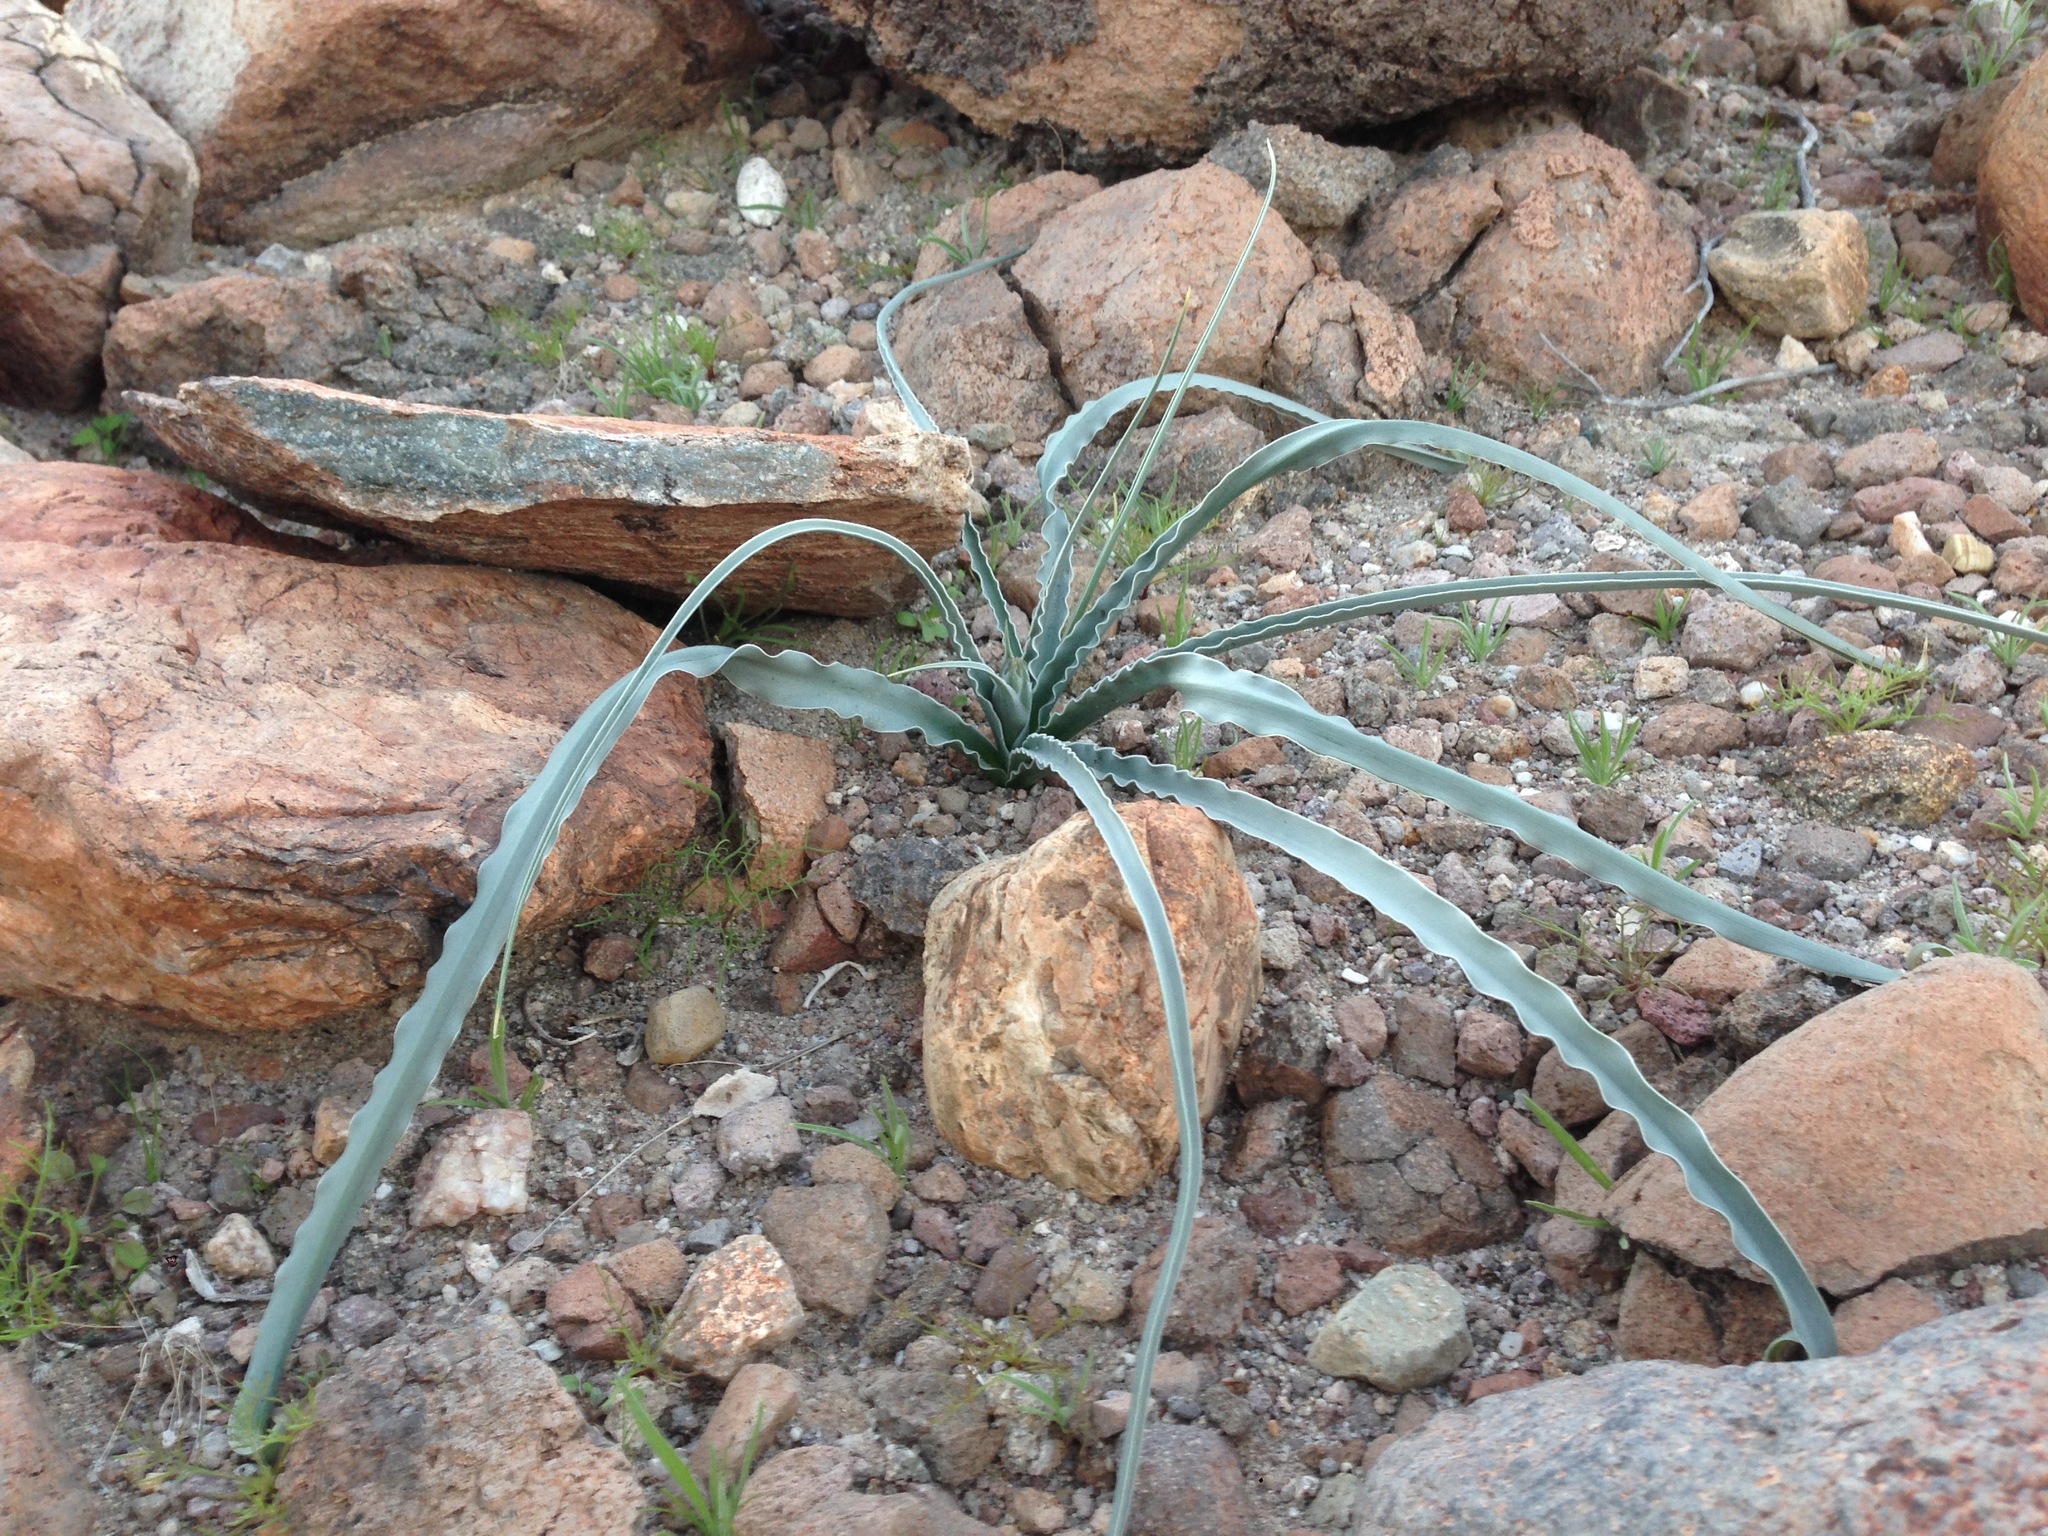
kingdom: Plantae
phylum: Tracheophyta
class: Liliopsida
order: Asparagales
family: Asparagaceae
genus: Hesperocallis
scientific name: Hesperocallis undulata
